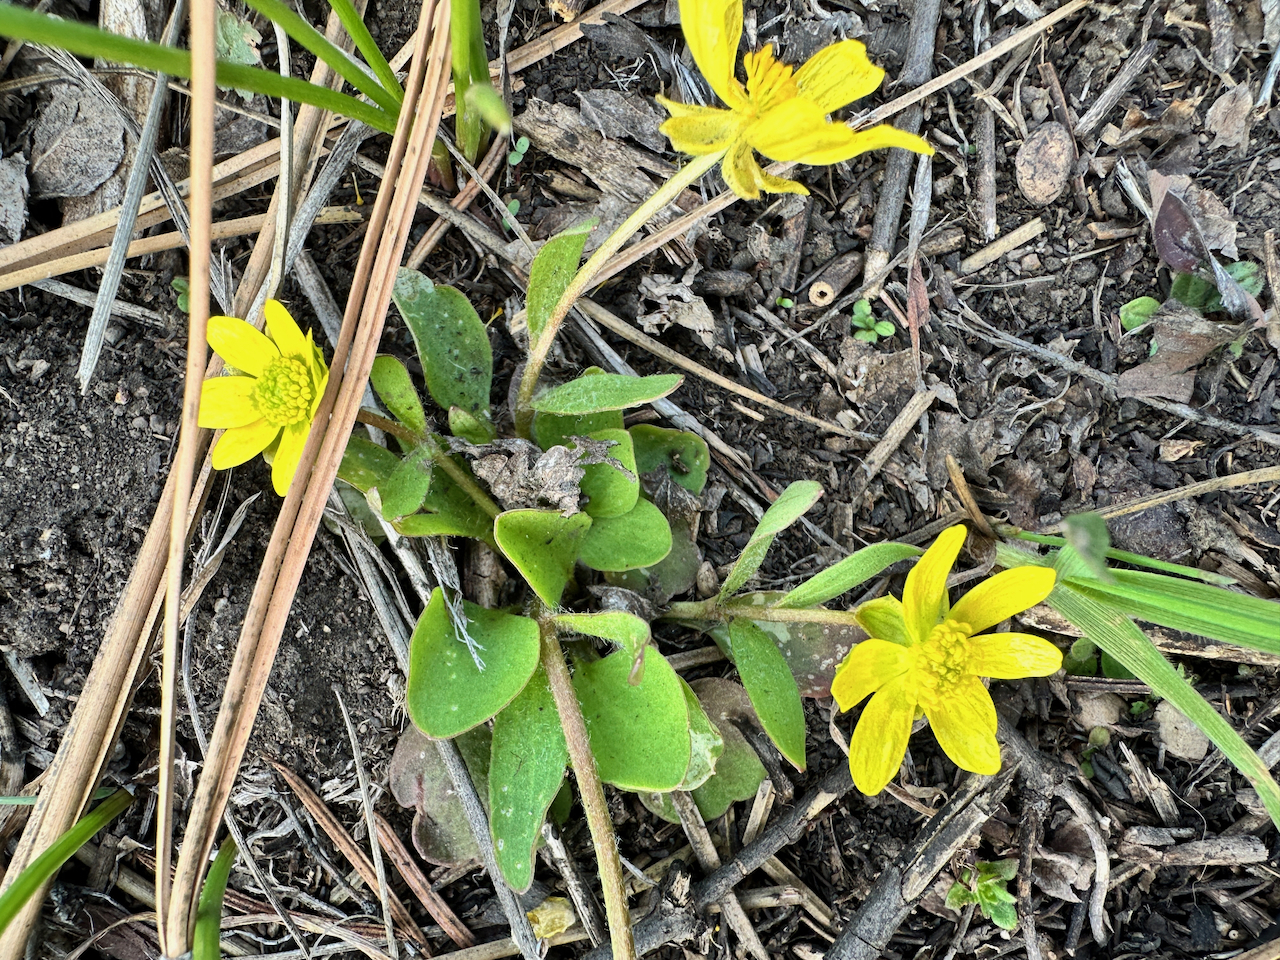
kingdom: Plantae
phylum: Tracheophyta
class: Magnoliopsida
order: Ranunculales
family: Ranunculaceae
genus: Ranunculus
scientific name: Ranunculus glaberrimus
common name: Sagebrush buttercup
